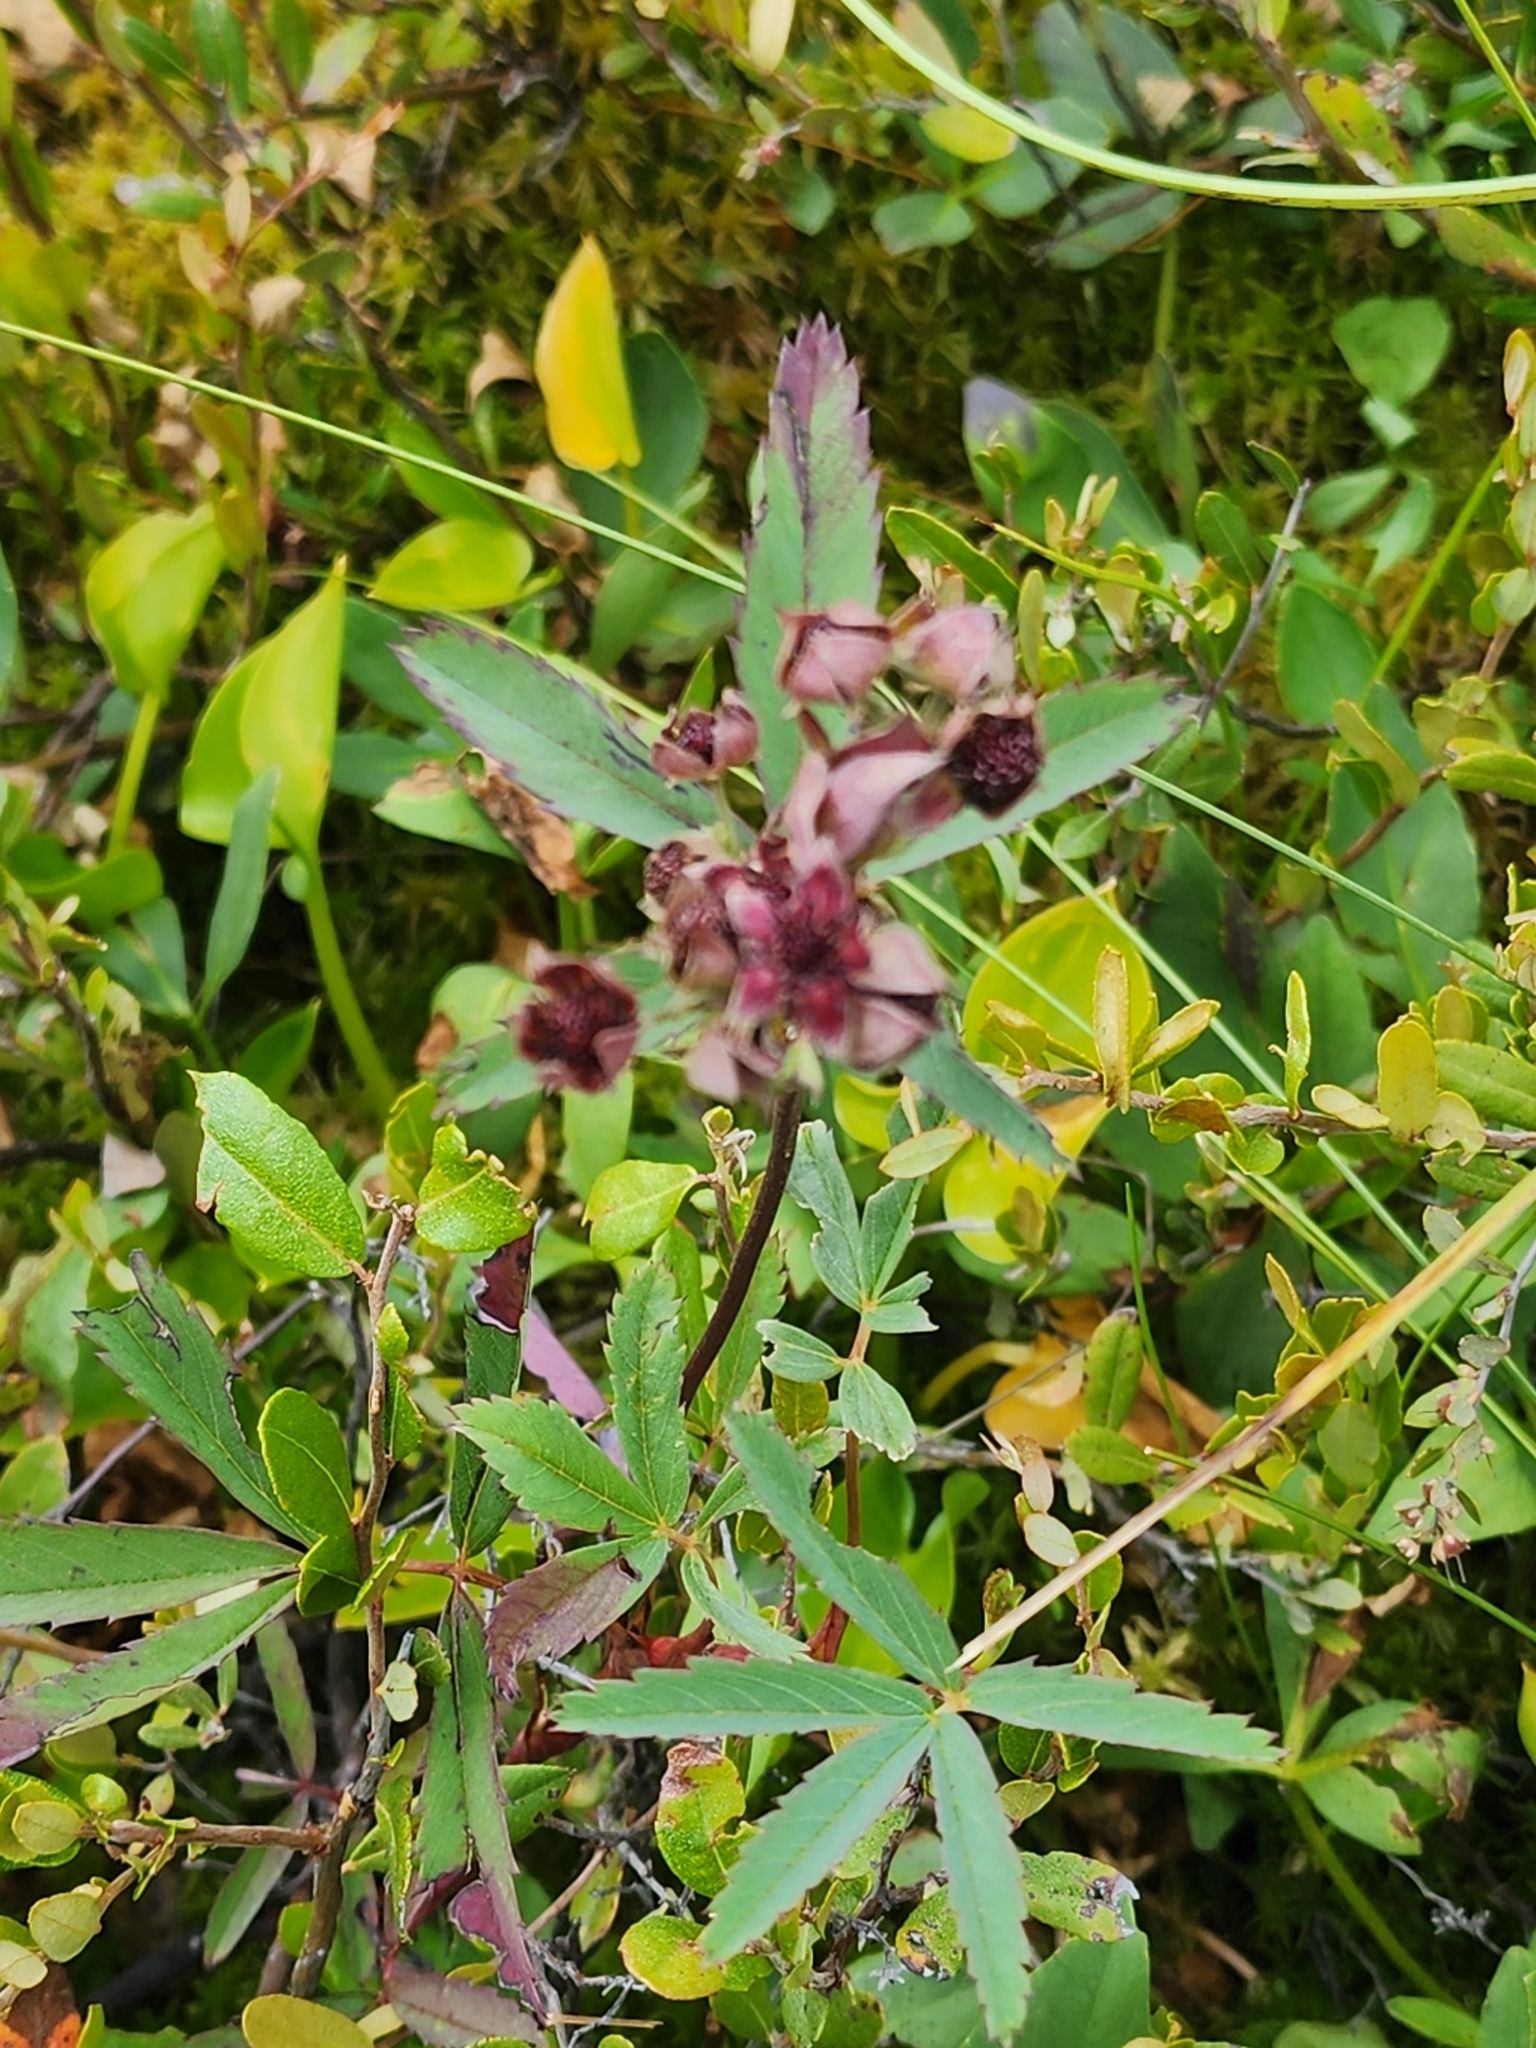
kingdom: Plantae
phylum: Tracheophyta
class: Magnoliopsida
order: Rosales
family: Rosaceae
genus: Comarum
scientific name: Comarum palustre
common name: Marsh cinquefoil
